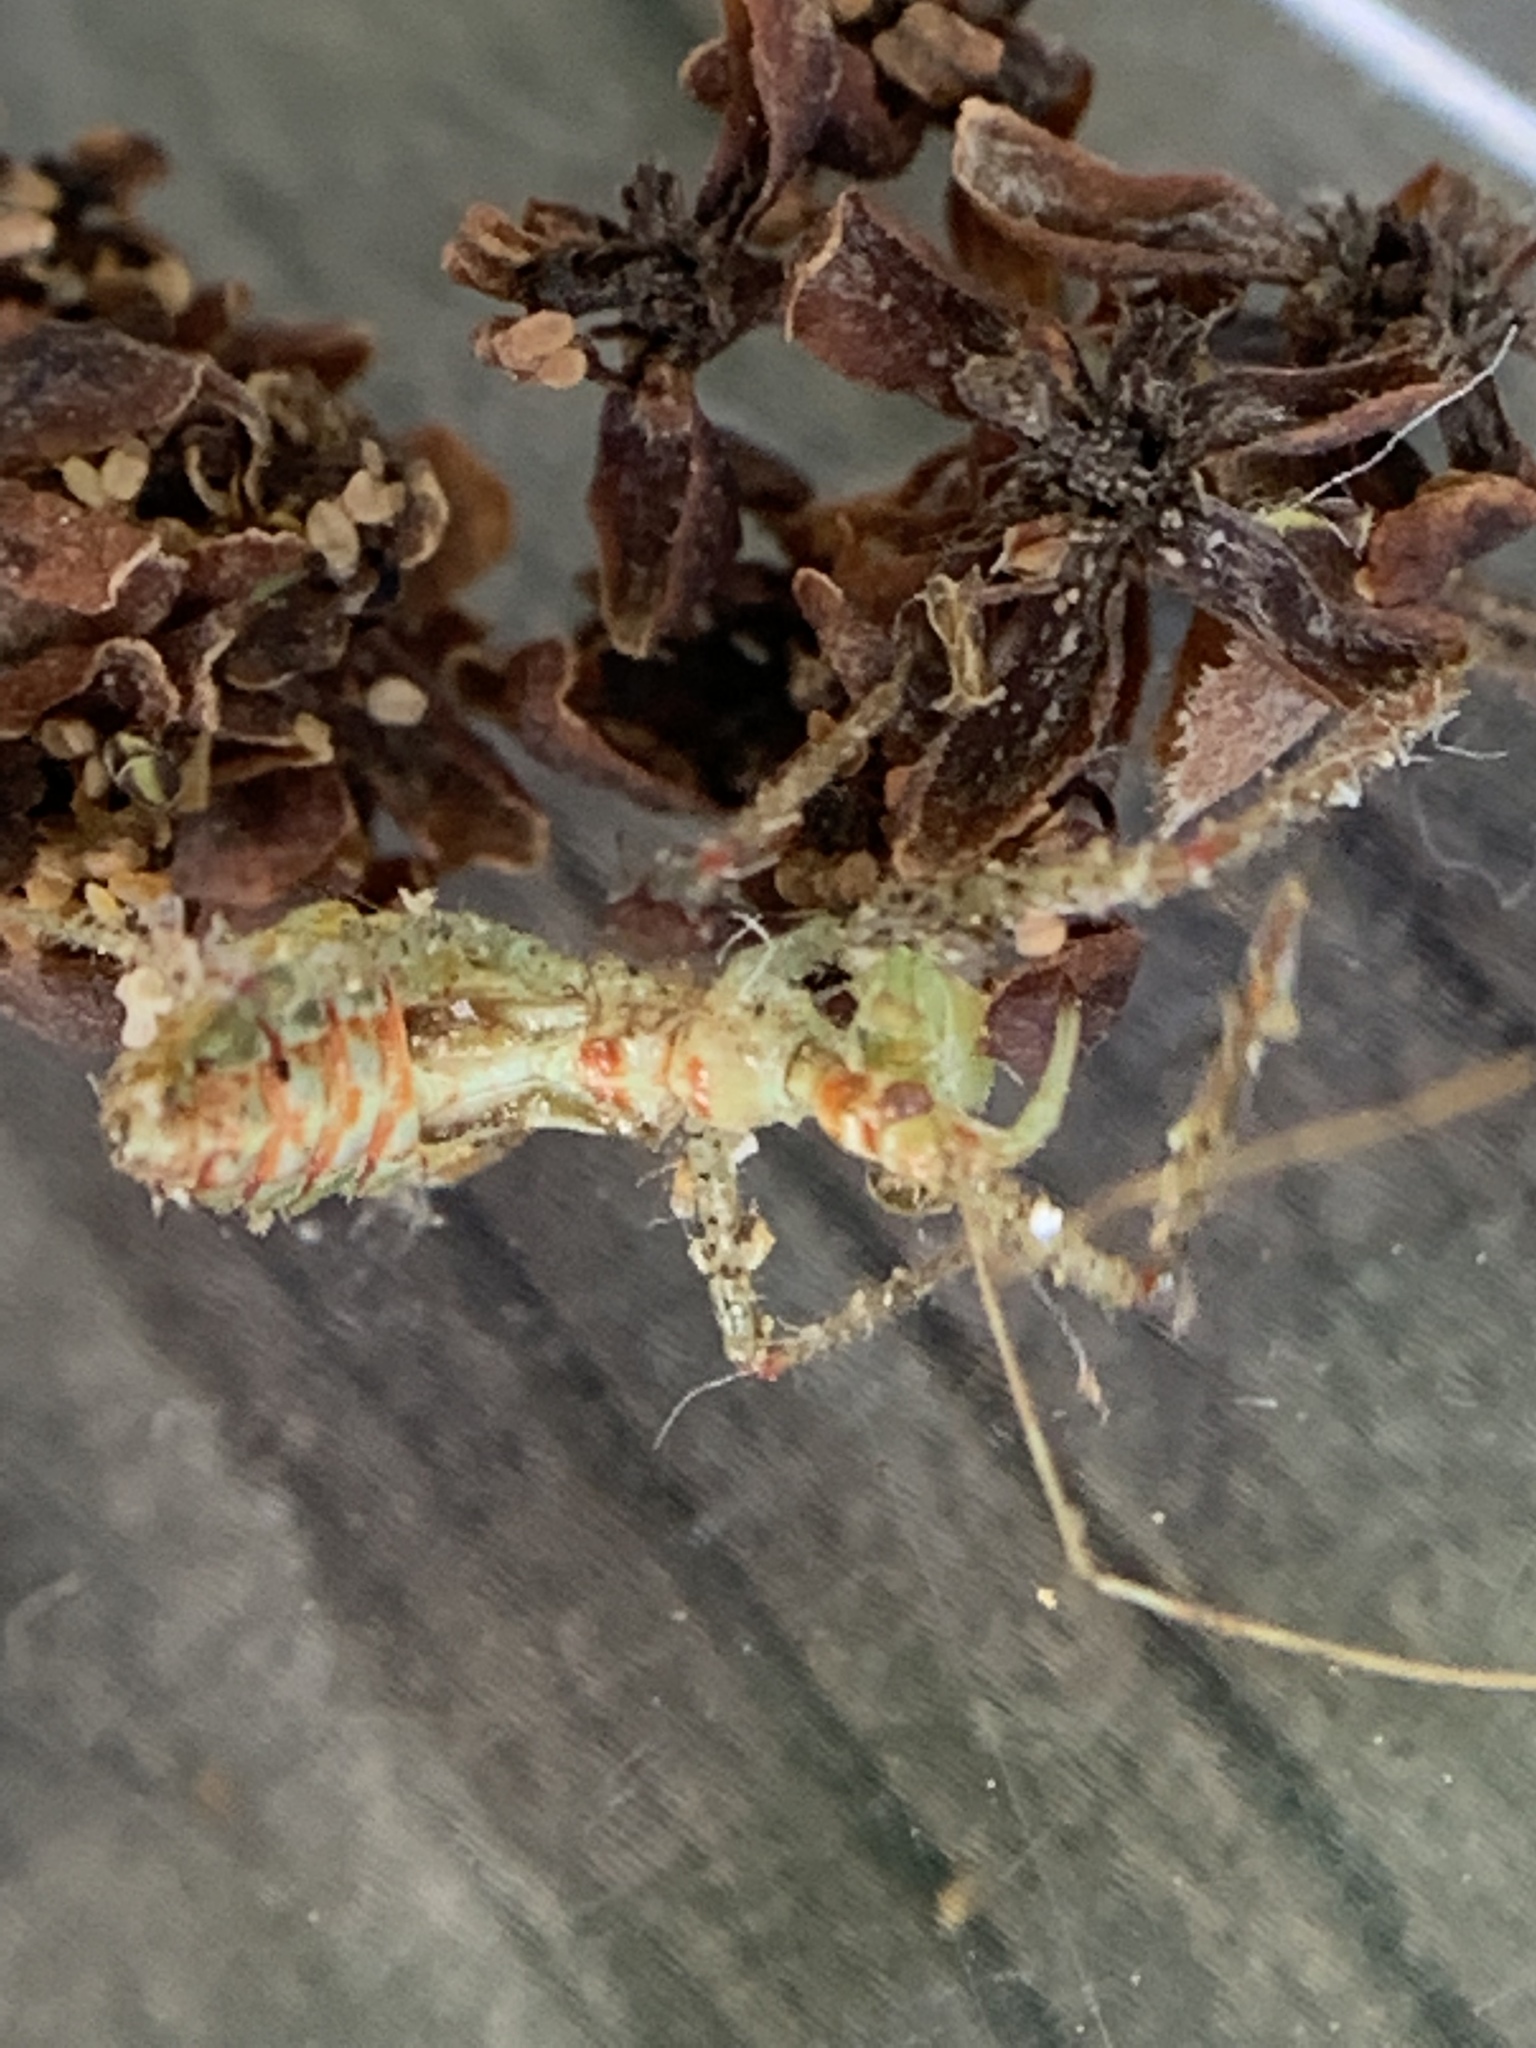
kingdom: Animalia
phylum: Arthropoda
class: Insecta
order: Hemiptera
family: Reduviidae
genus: Zelus
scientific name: Zelus renardii
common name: Assassin bug
